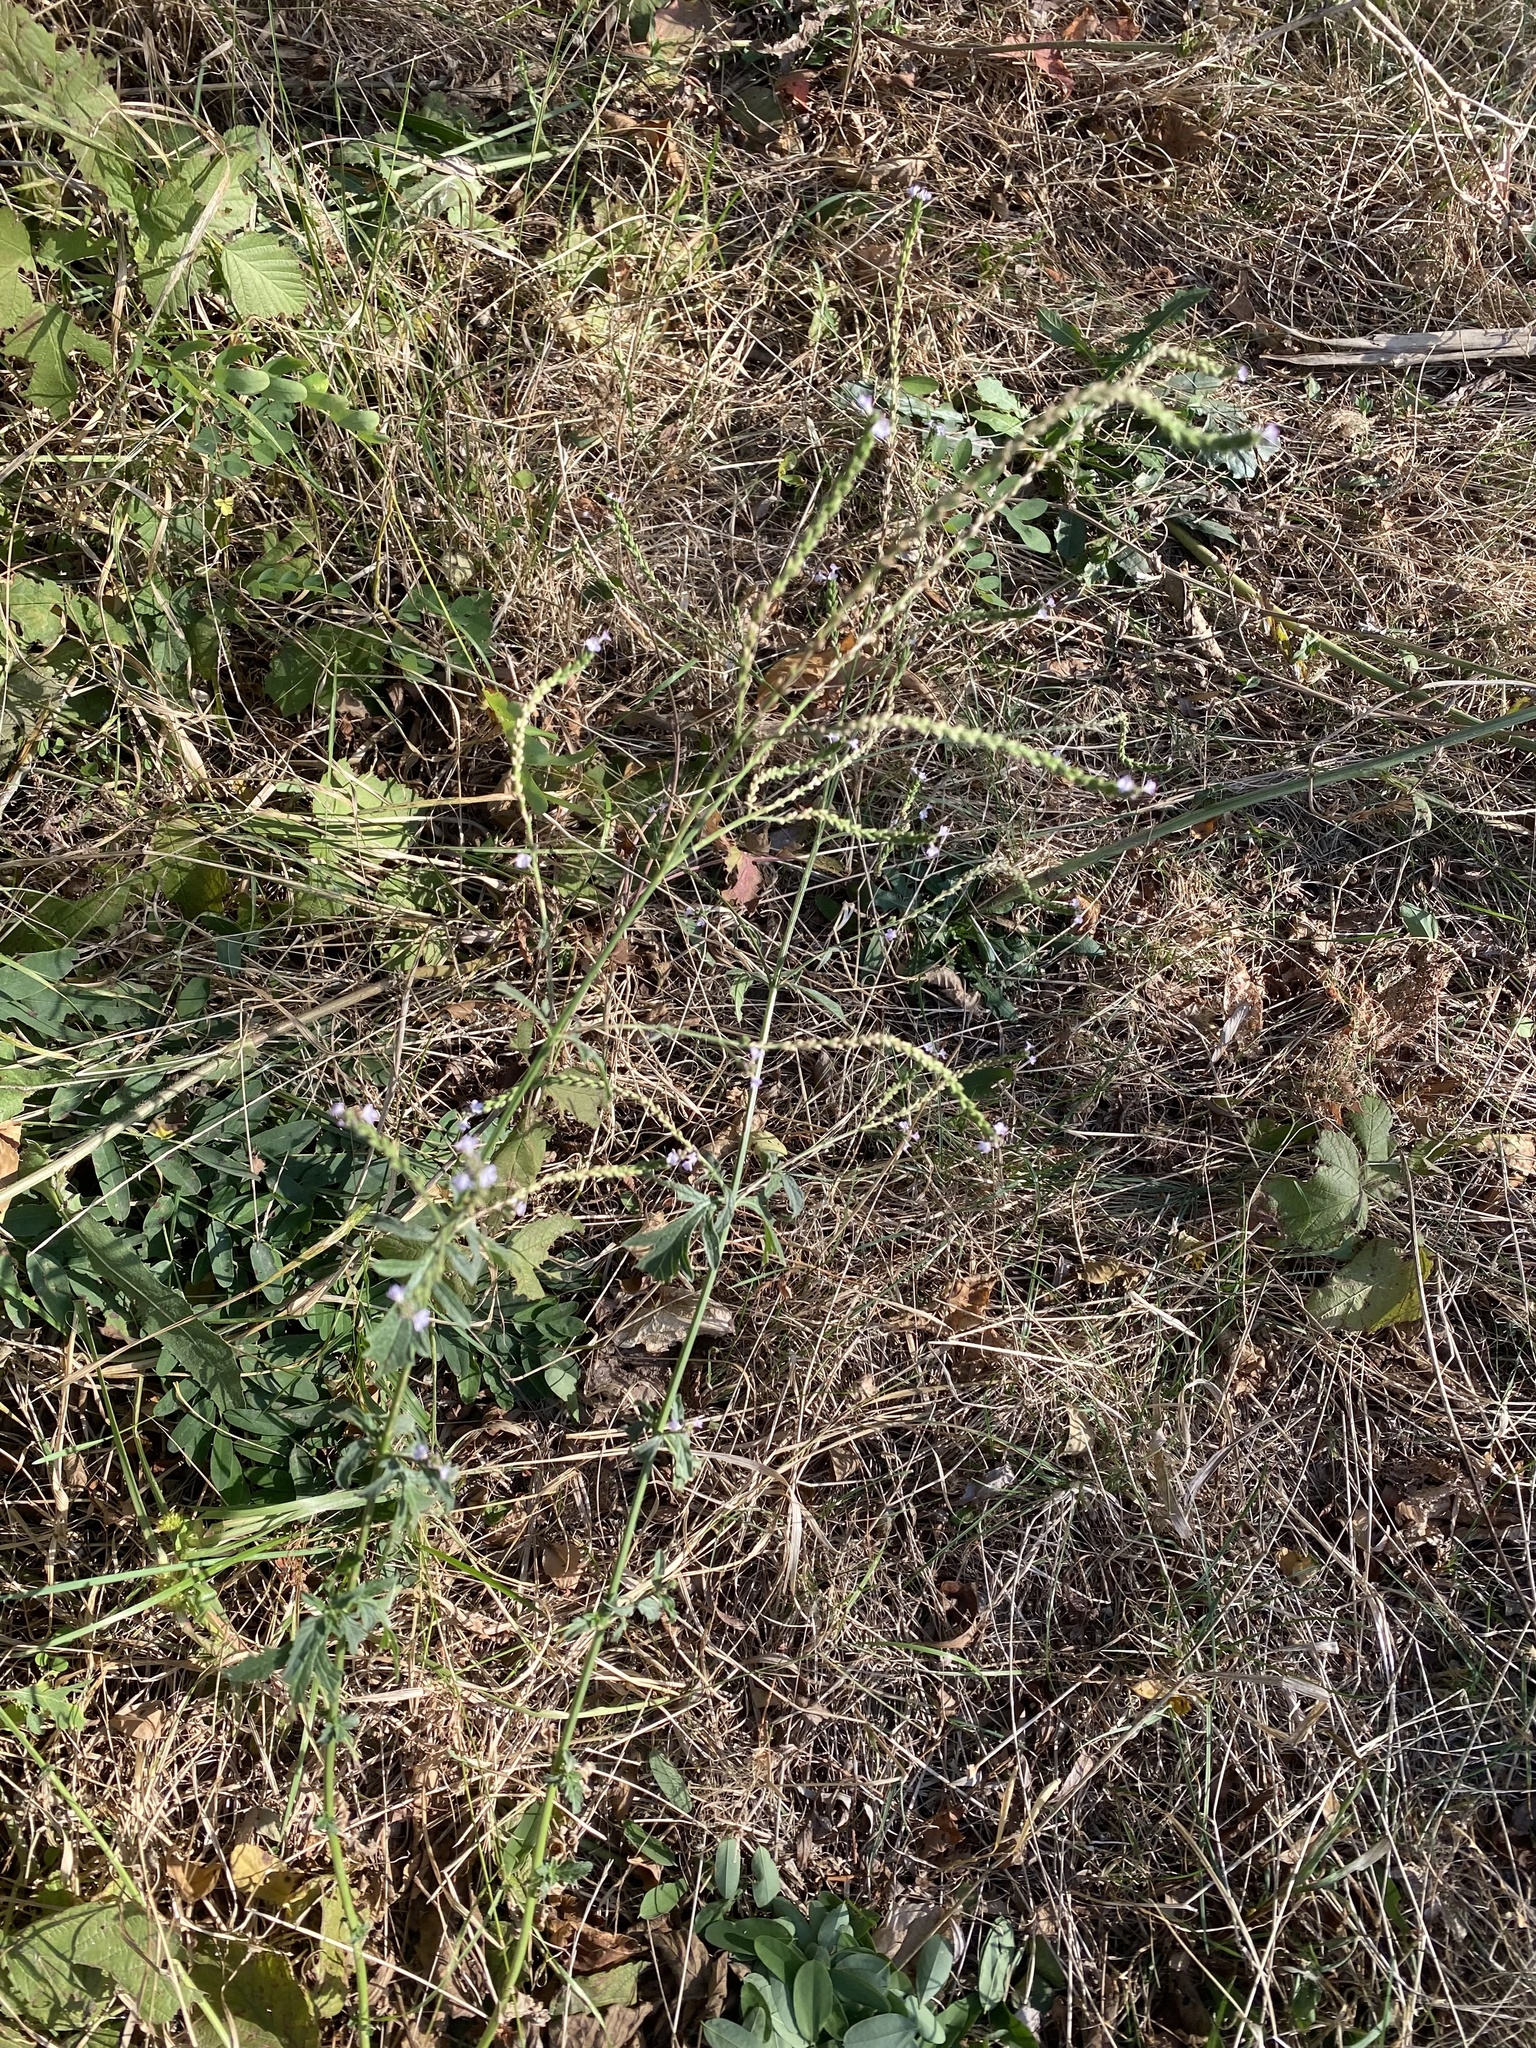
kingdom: Plantae
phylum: Tracheophyta
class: Magnoliopsida
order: Lamiales
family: Verbenaceae
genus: Verbena
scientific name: Verbena officinalis
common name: Vervain
